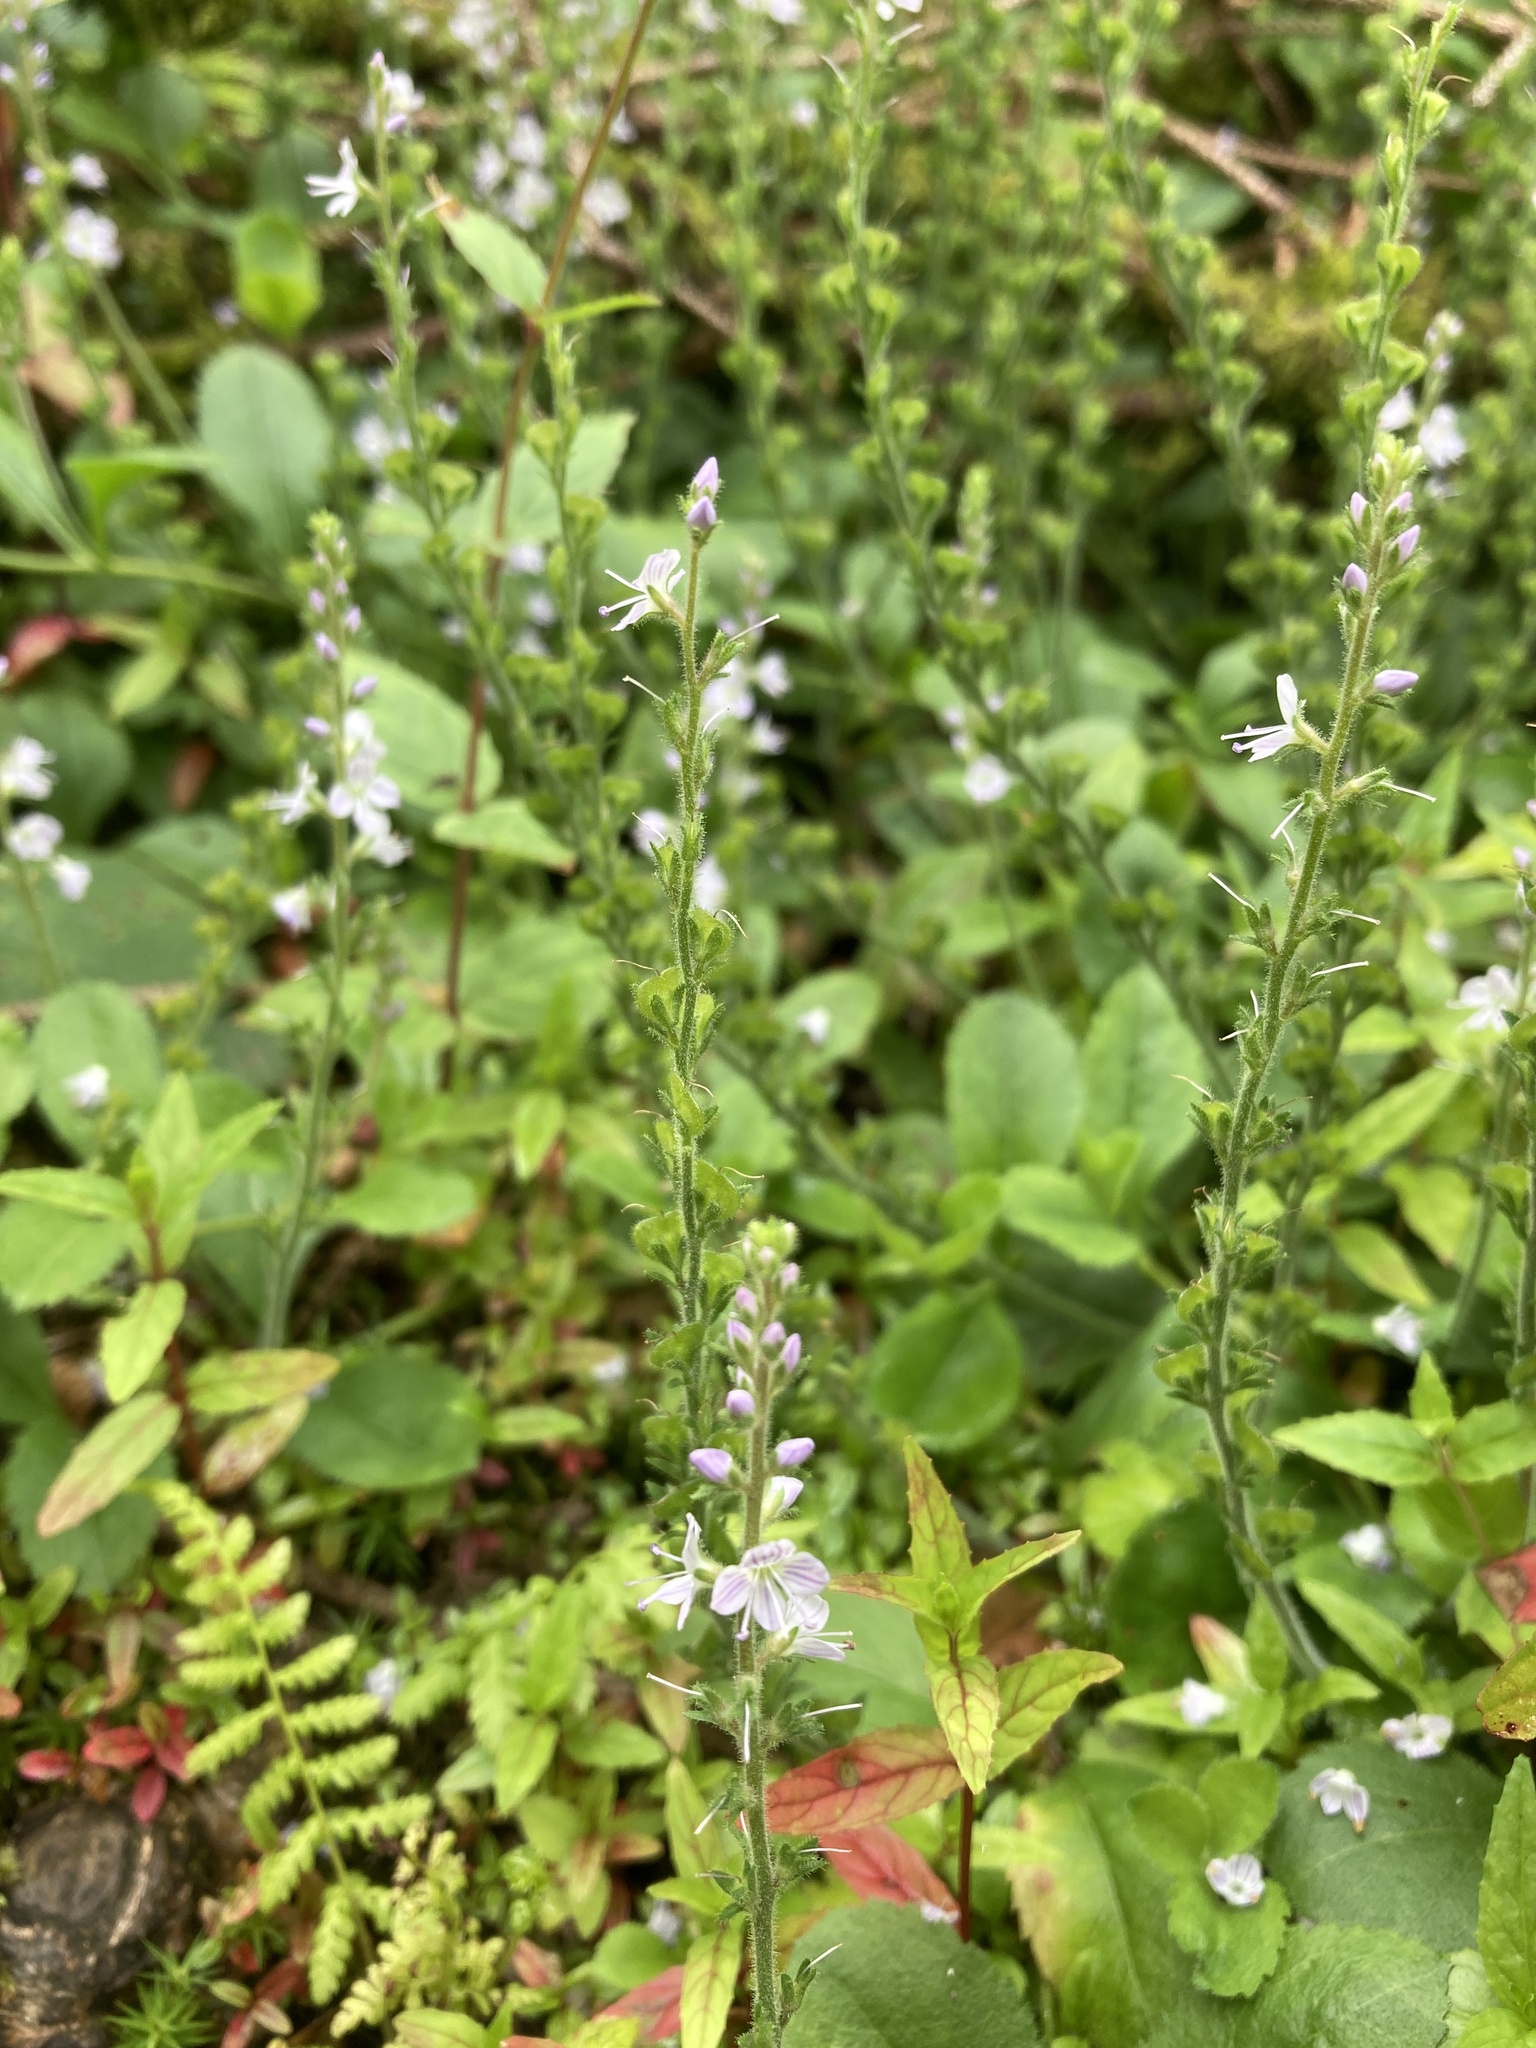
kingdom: Plantae
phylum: Tracheophyta
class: Magnoliopsida
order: Lamiales
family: Plantaginaceae
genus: Veronica
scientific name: Veronica officinalis
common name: Common speedwell
